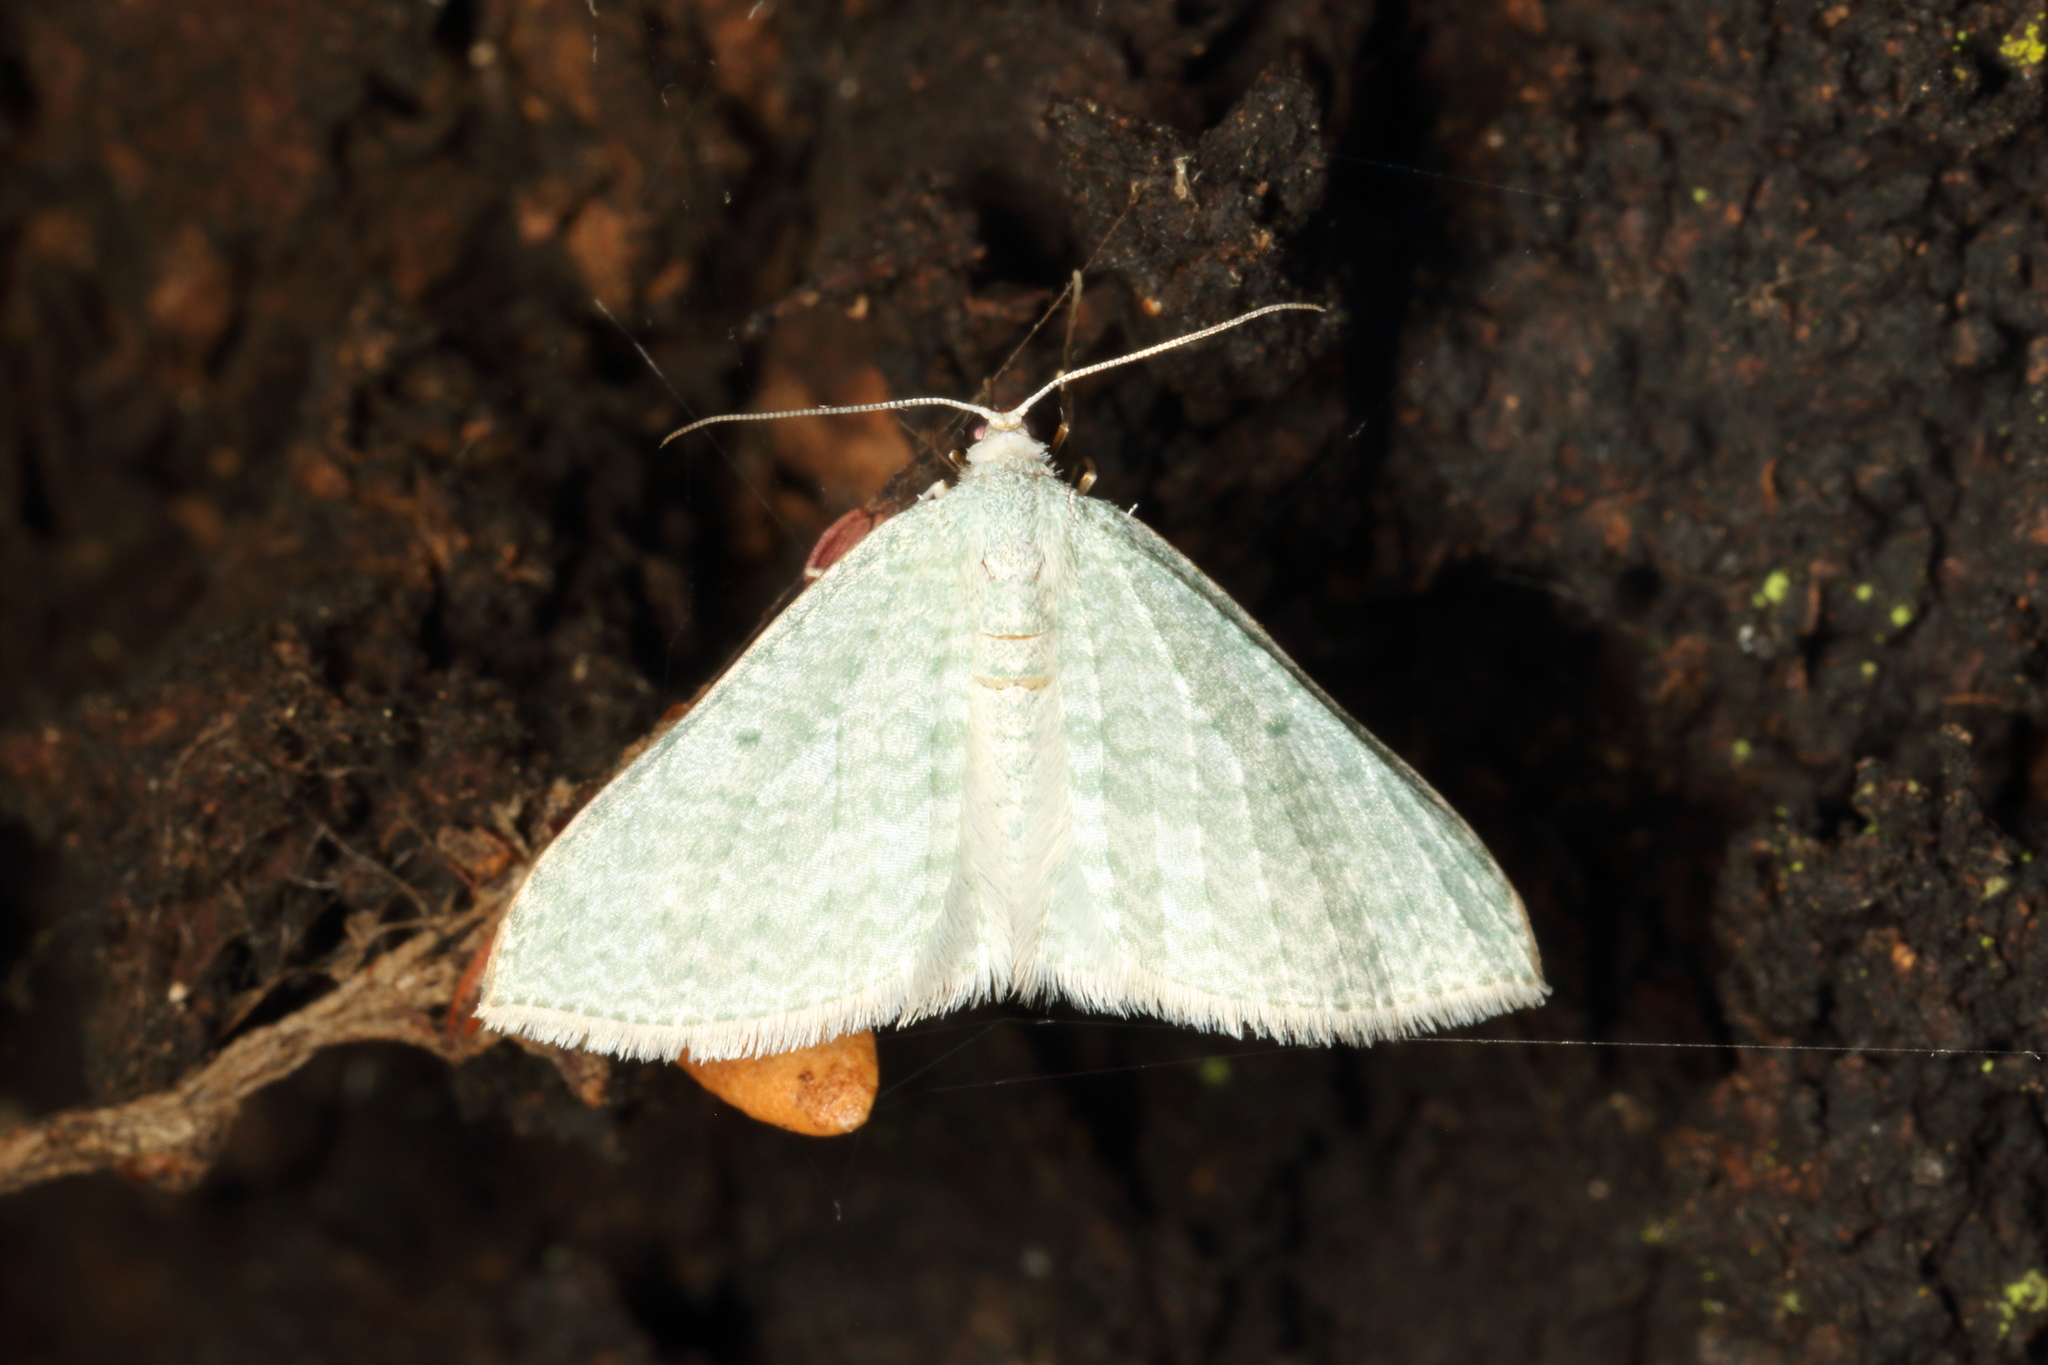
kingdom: Animalia
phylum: Arthropoda
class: Insecta
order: Lepidoptera
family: Geometridae
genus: Poecilasthena
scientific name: Poecilasthena pulchraria
